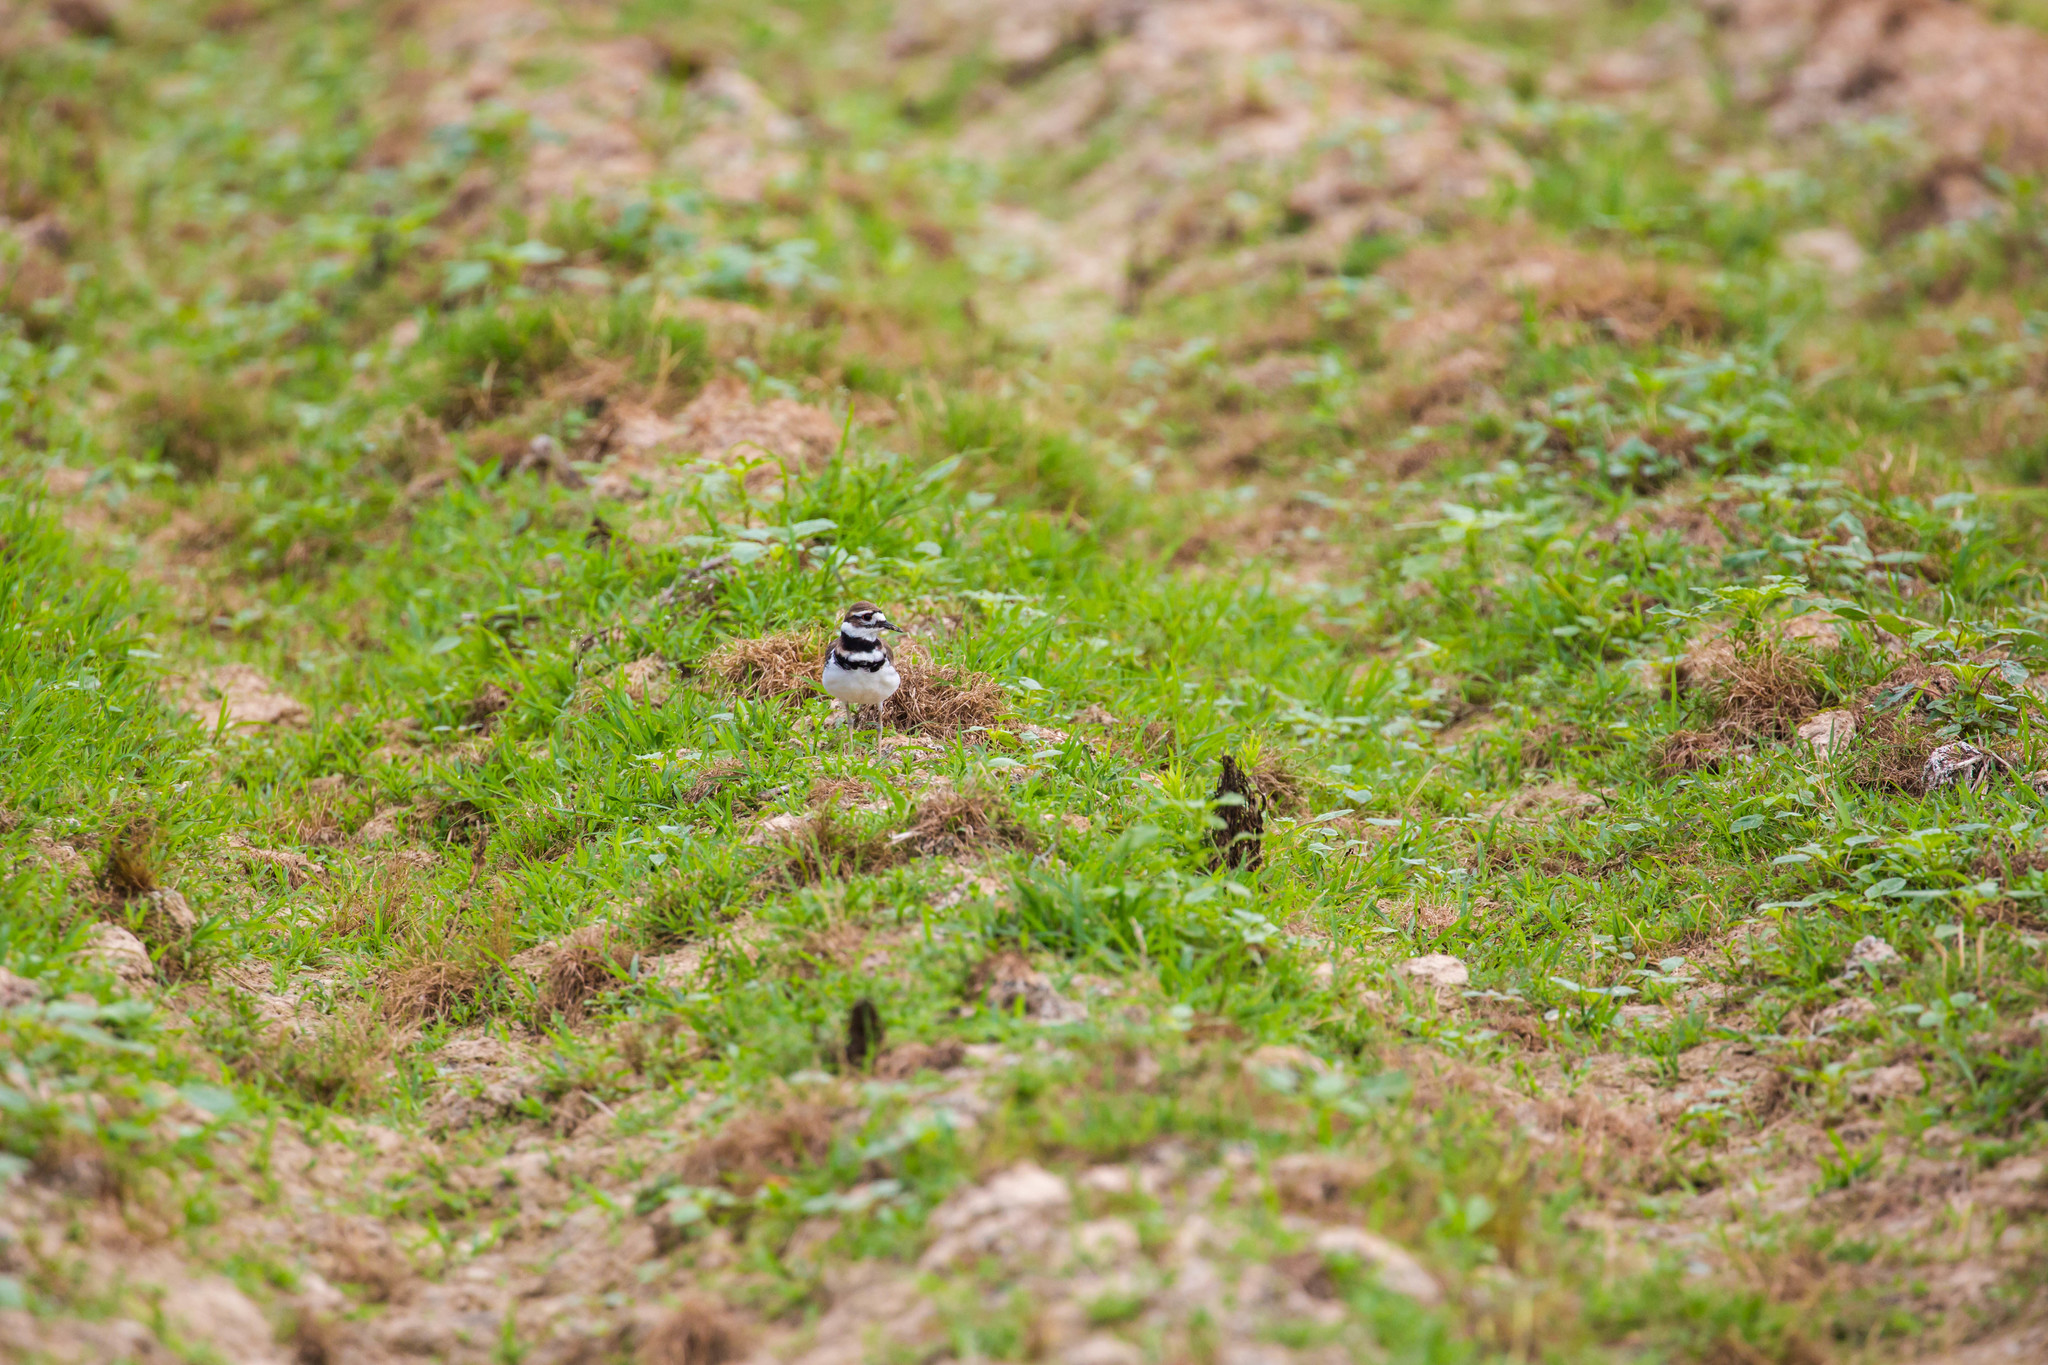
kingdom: Animalia
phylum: Chordata
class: Aves
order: Charadriiformes
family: Charadriidae
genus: Charadrius
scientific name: Charadrius vociferus
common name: Killdeer
